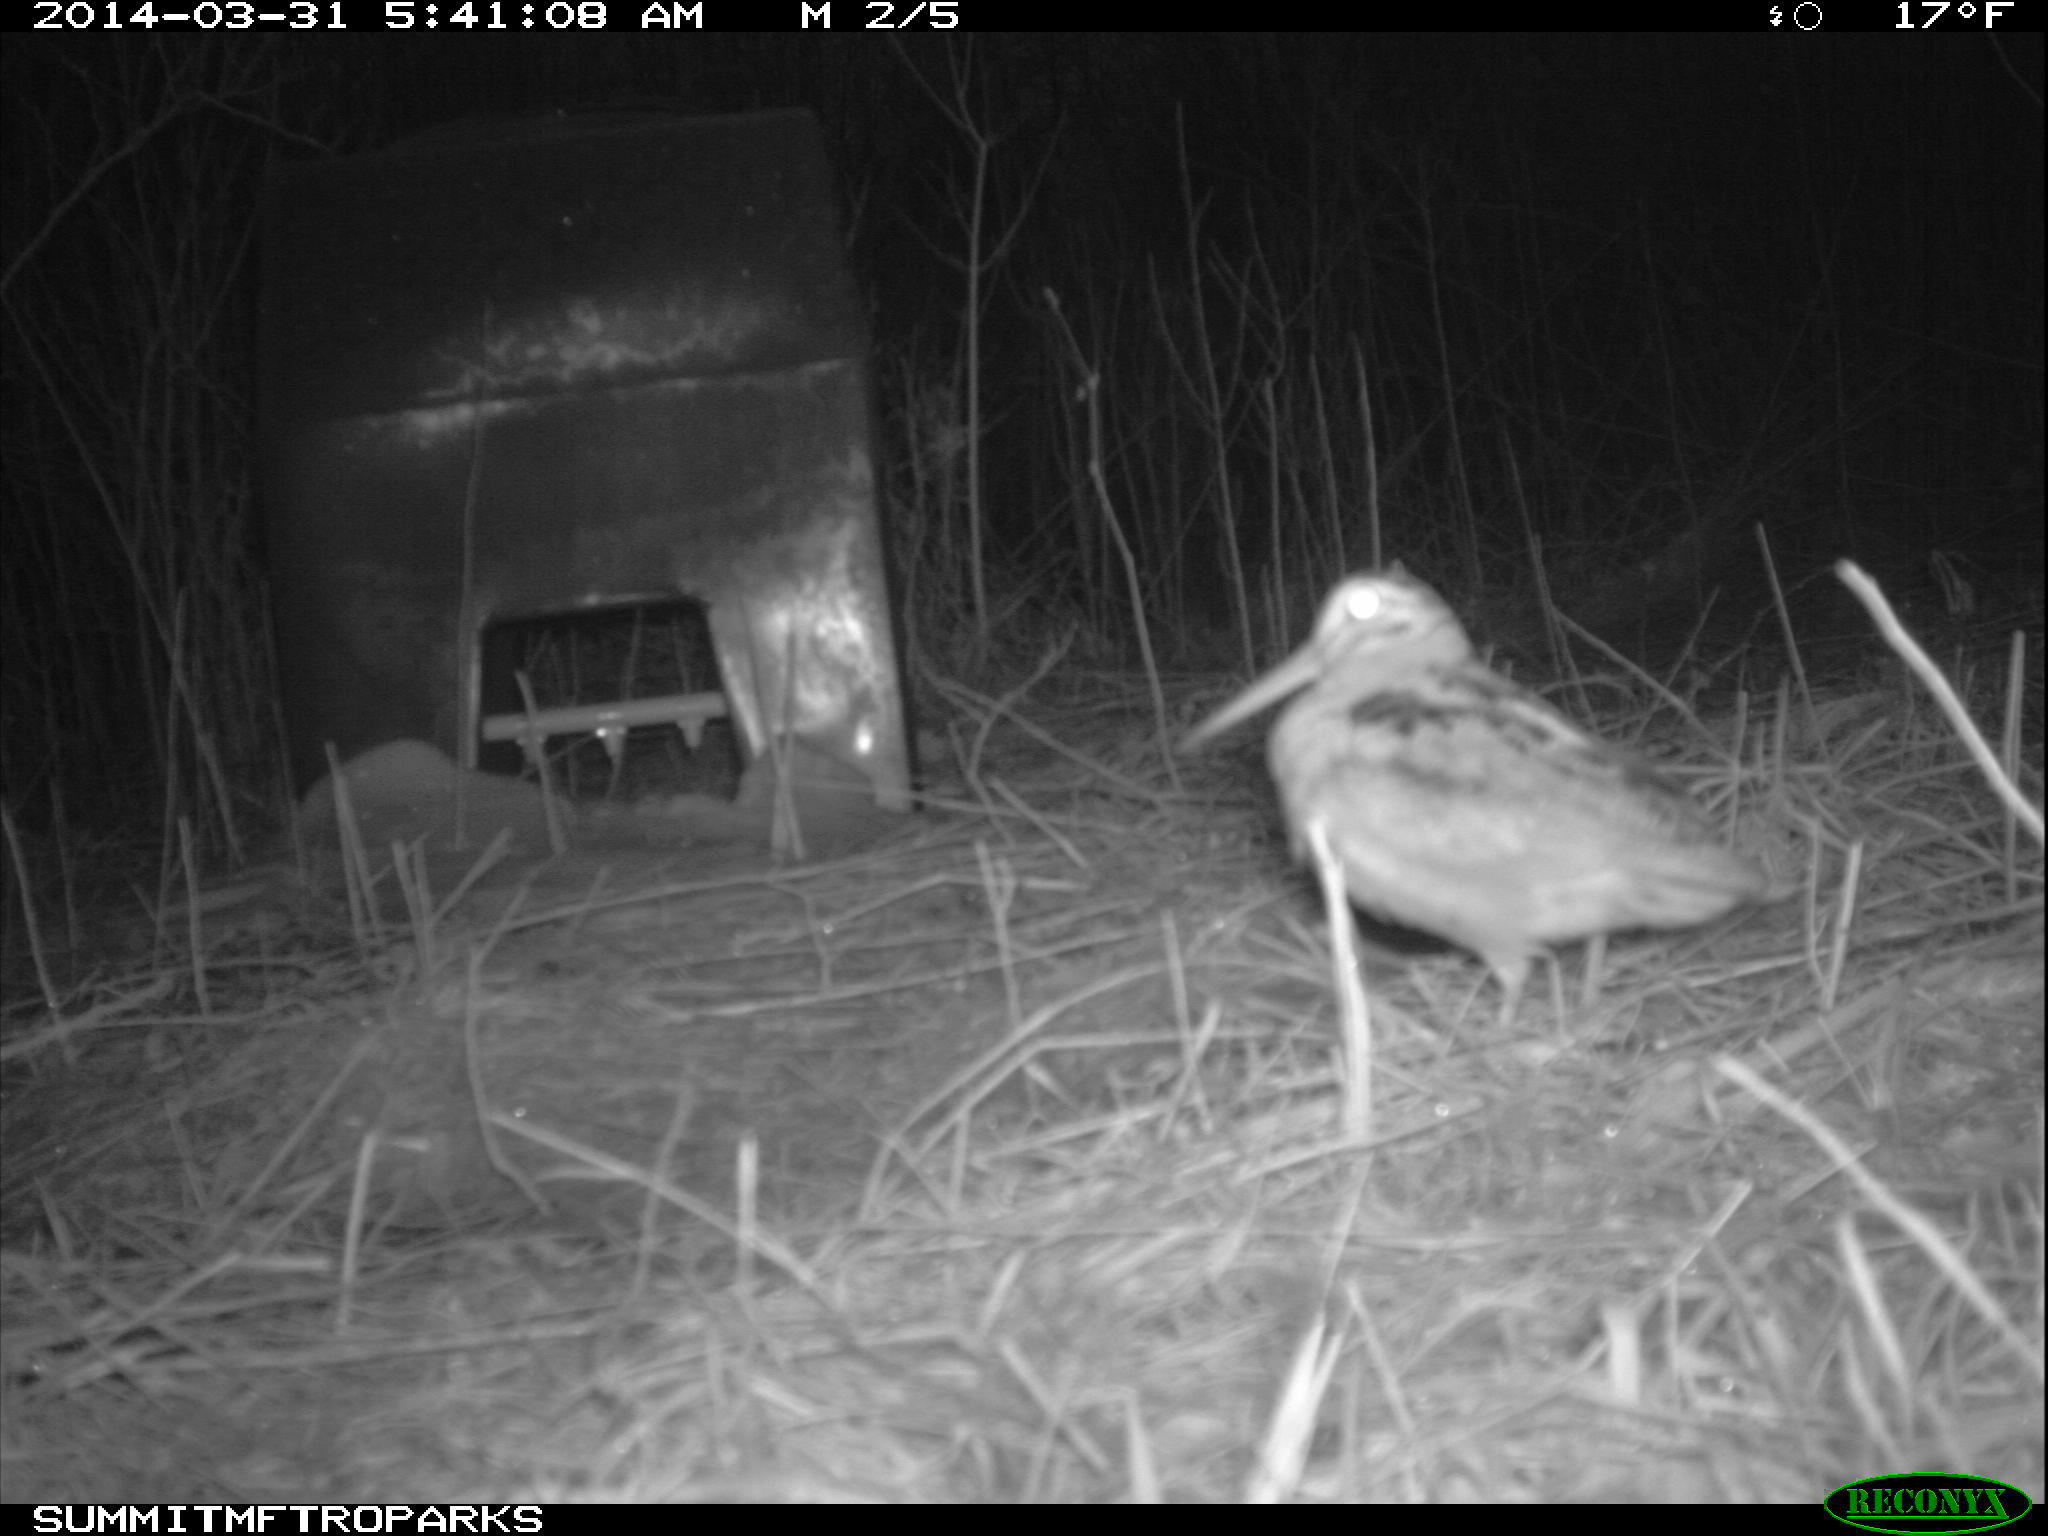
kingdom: Animalia
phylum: Chordata
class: Aves
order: Charadriiformes
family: Scolopacidae
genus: Scolopax
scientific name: Scolopax minor
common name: American woodcock
